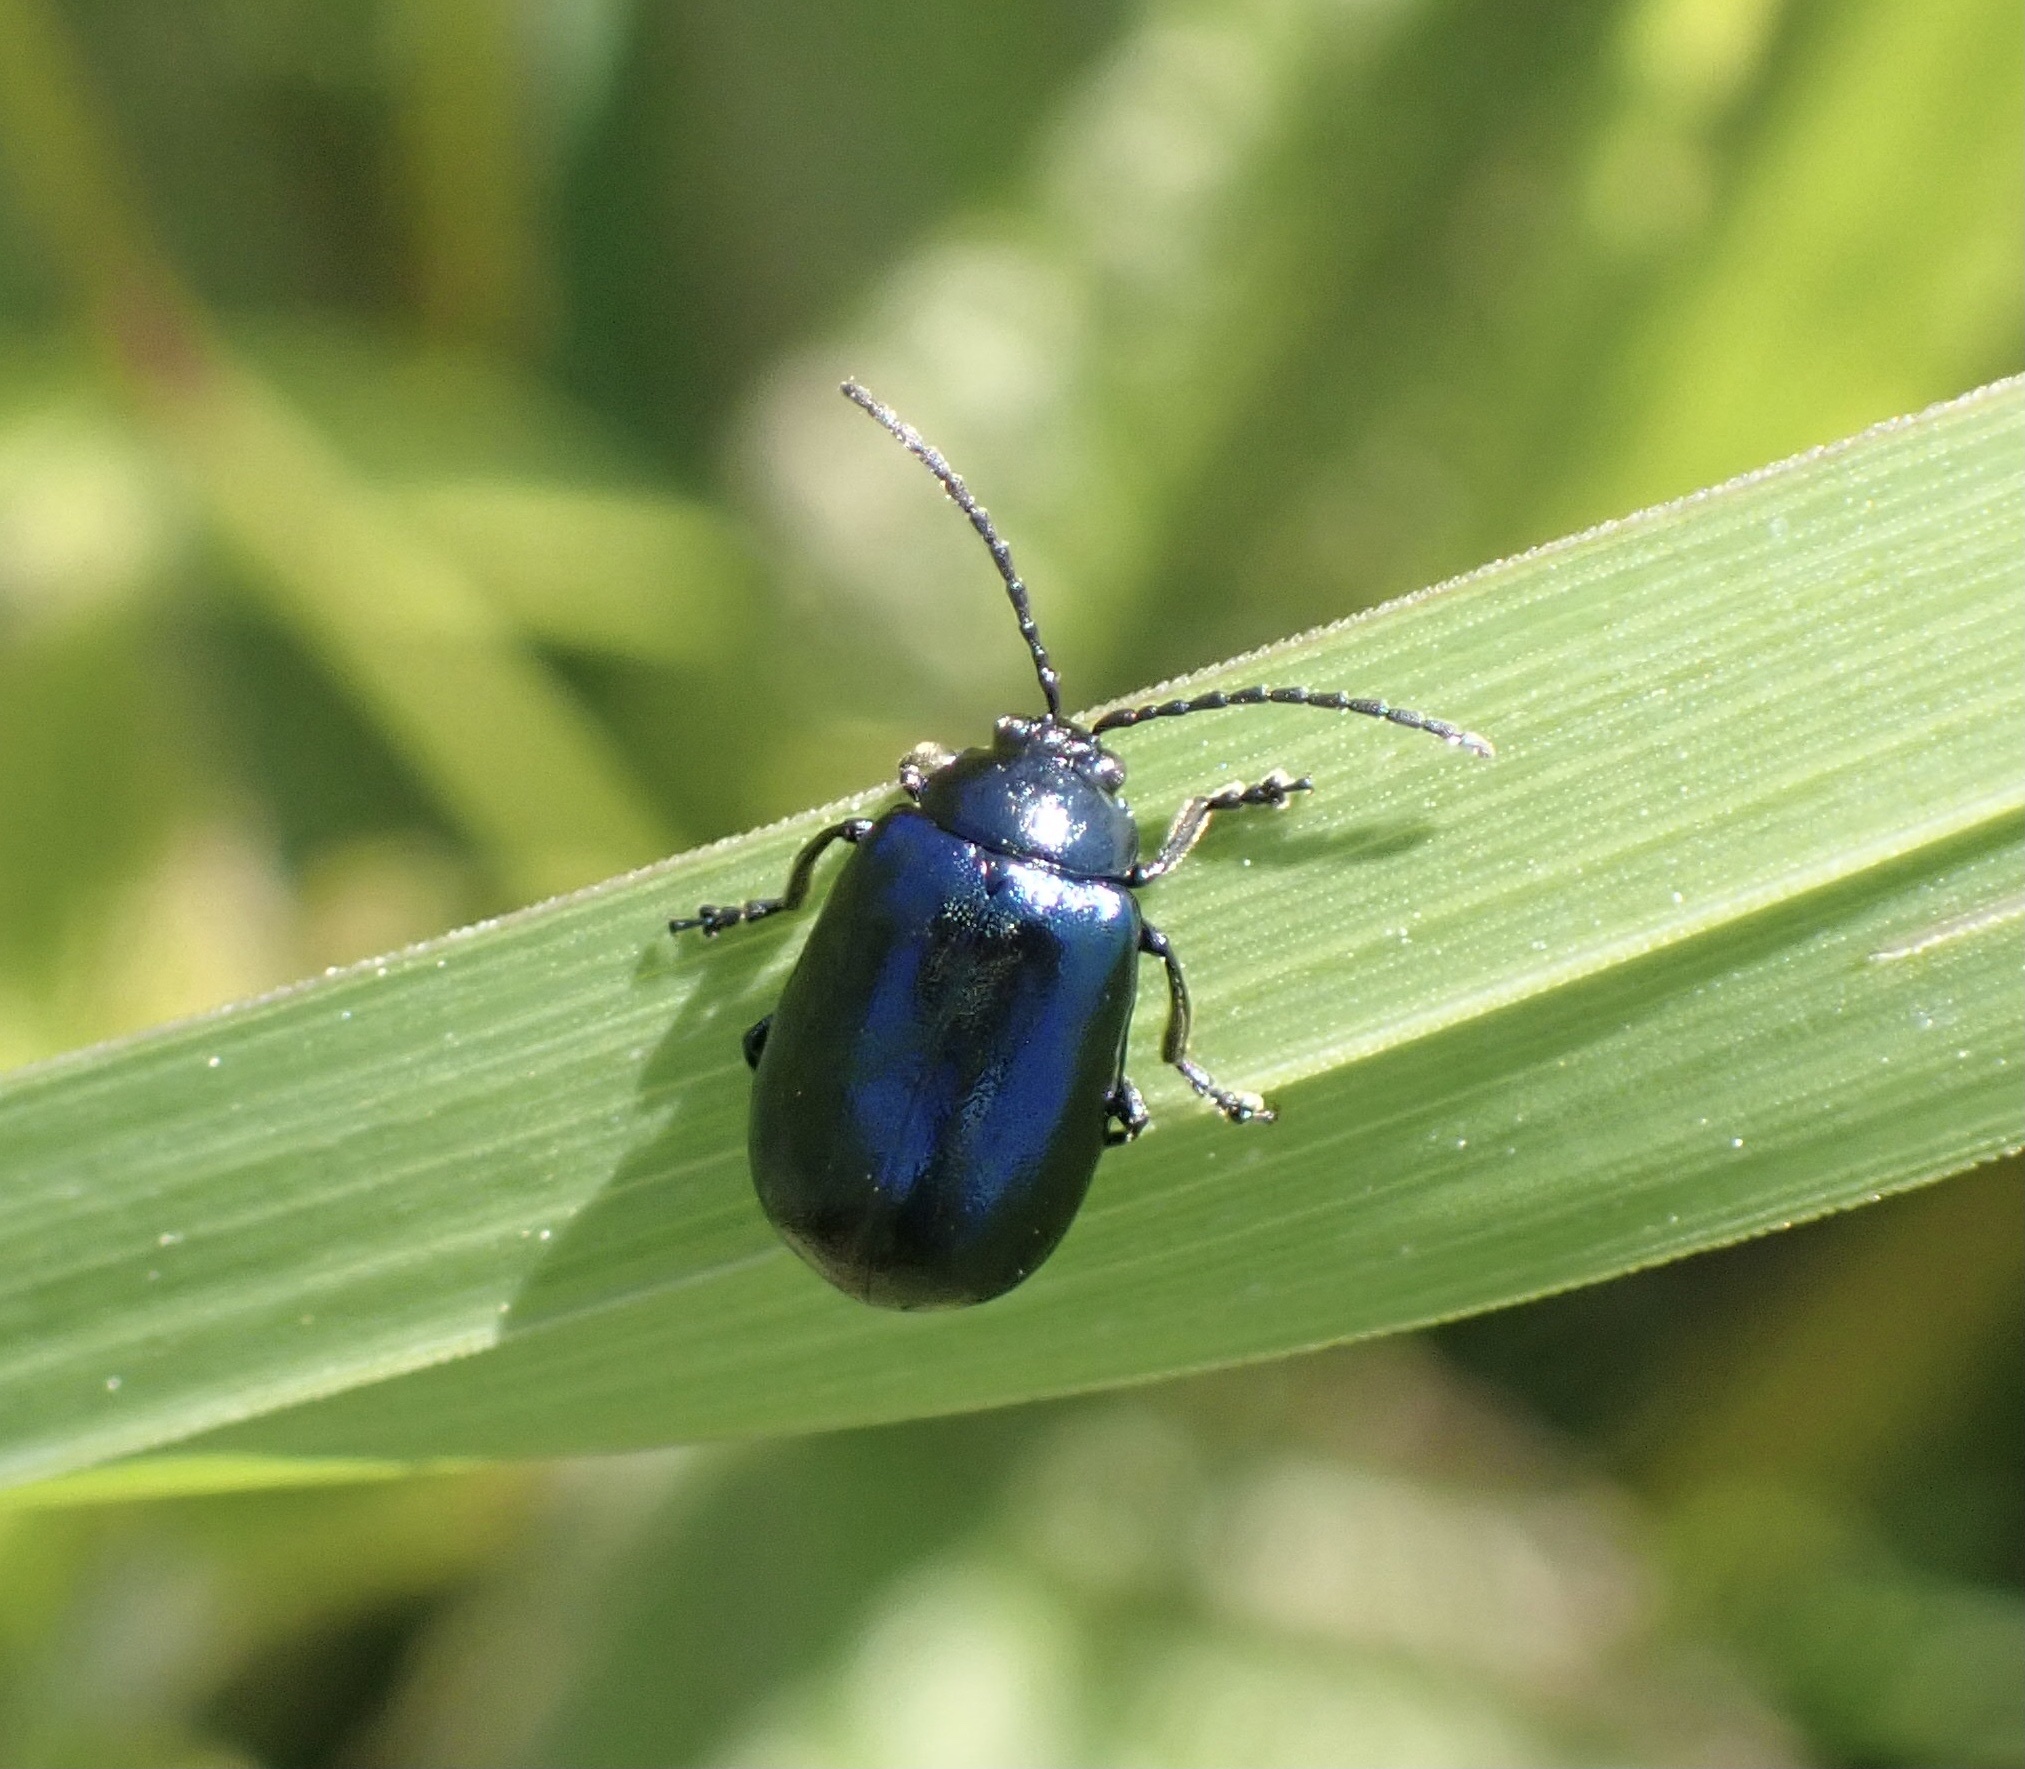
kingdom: Animalia
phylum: Arthropoda
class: Insecta
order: Coleoptera
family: Chrysomelidae
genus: Agelastica
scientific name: Agelastica alni
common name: Alder leaf beetle
